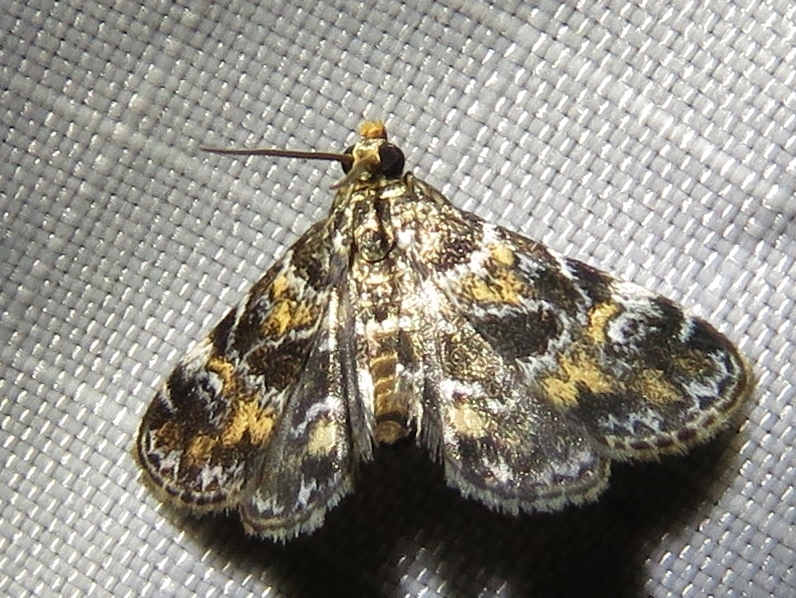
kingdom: Animalia
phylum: Arthropoda
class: Insecta
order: Lepidoptera
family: Crambidae
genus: Elophila
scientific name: Elophila obliteralis
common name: Waterlily leafcutter moth
